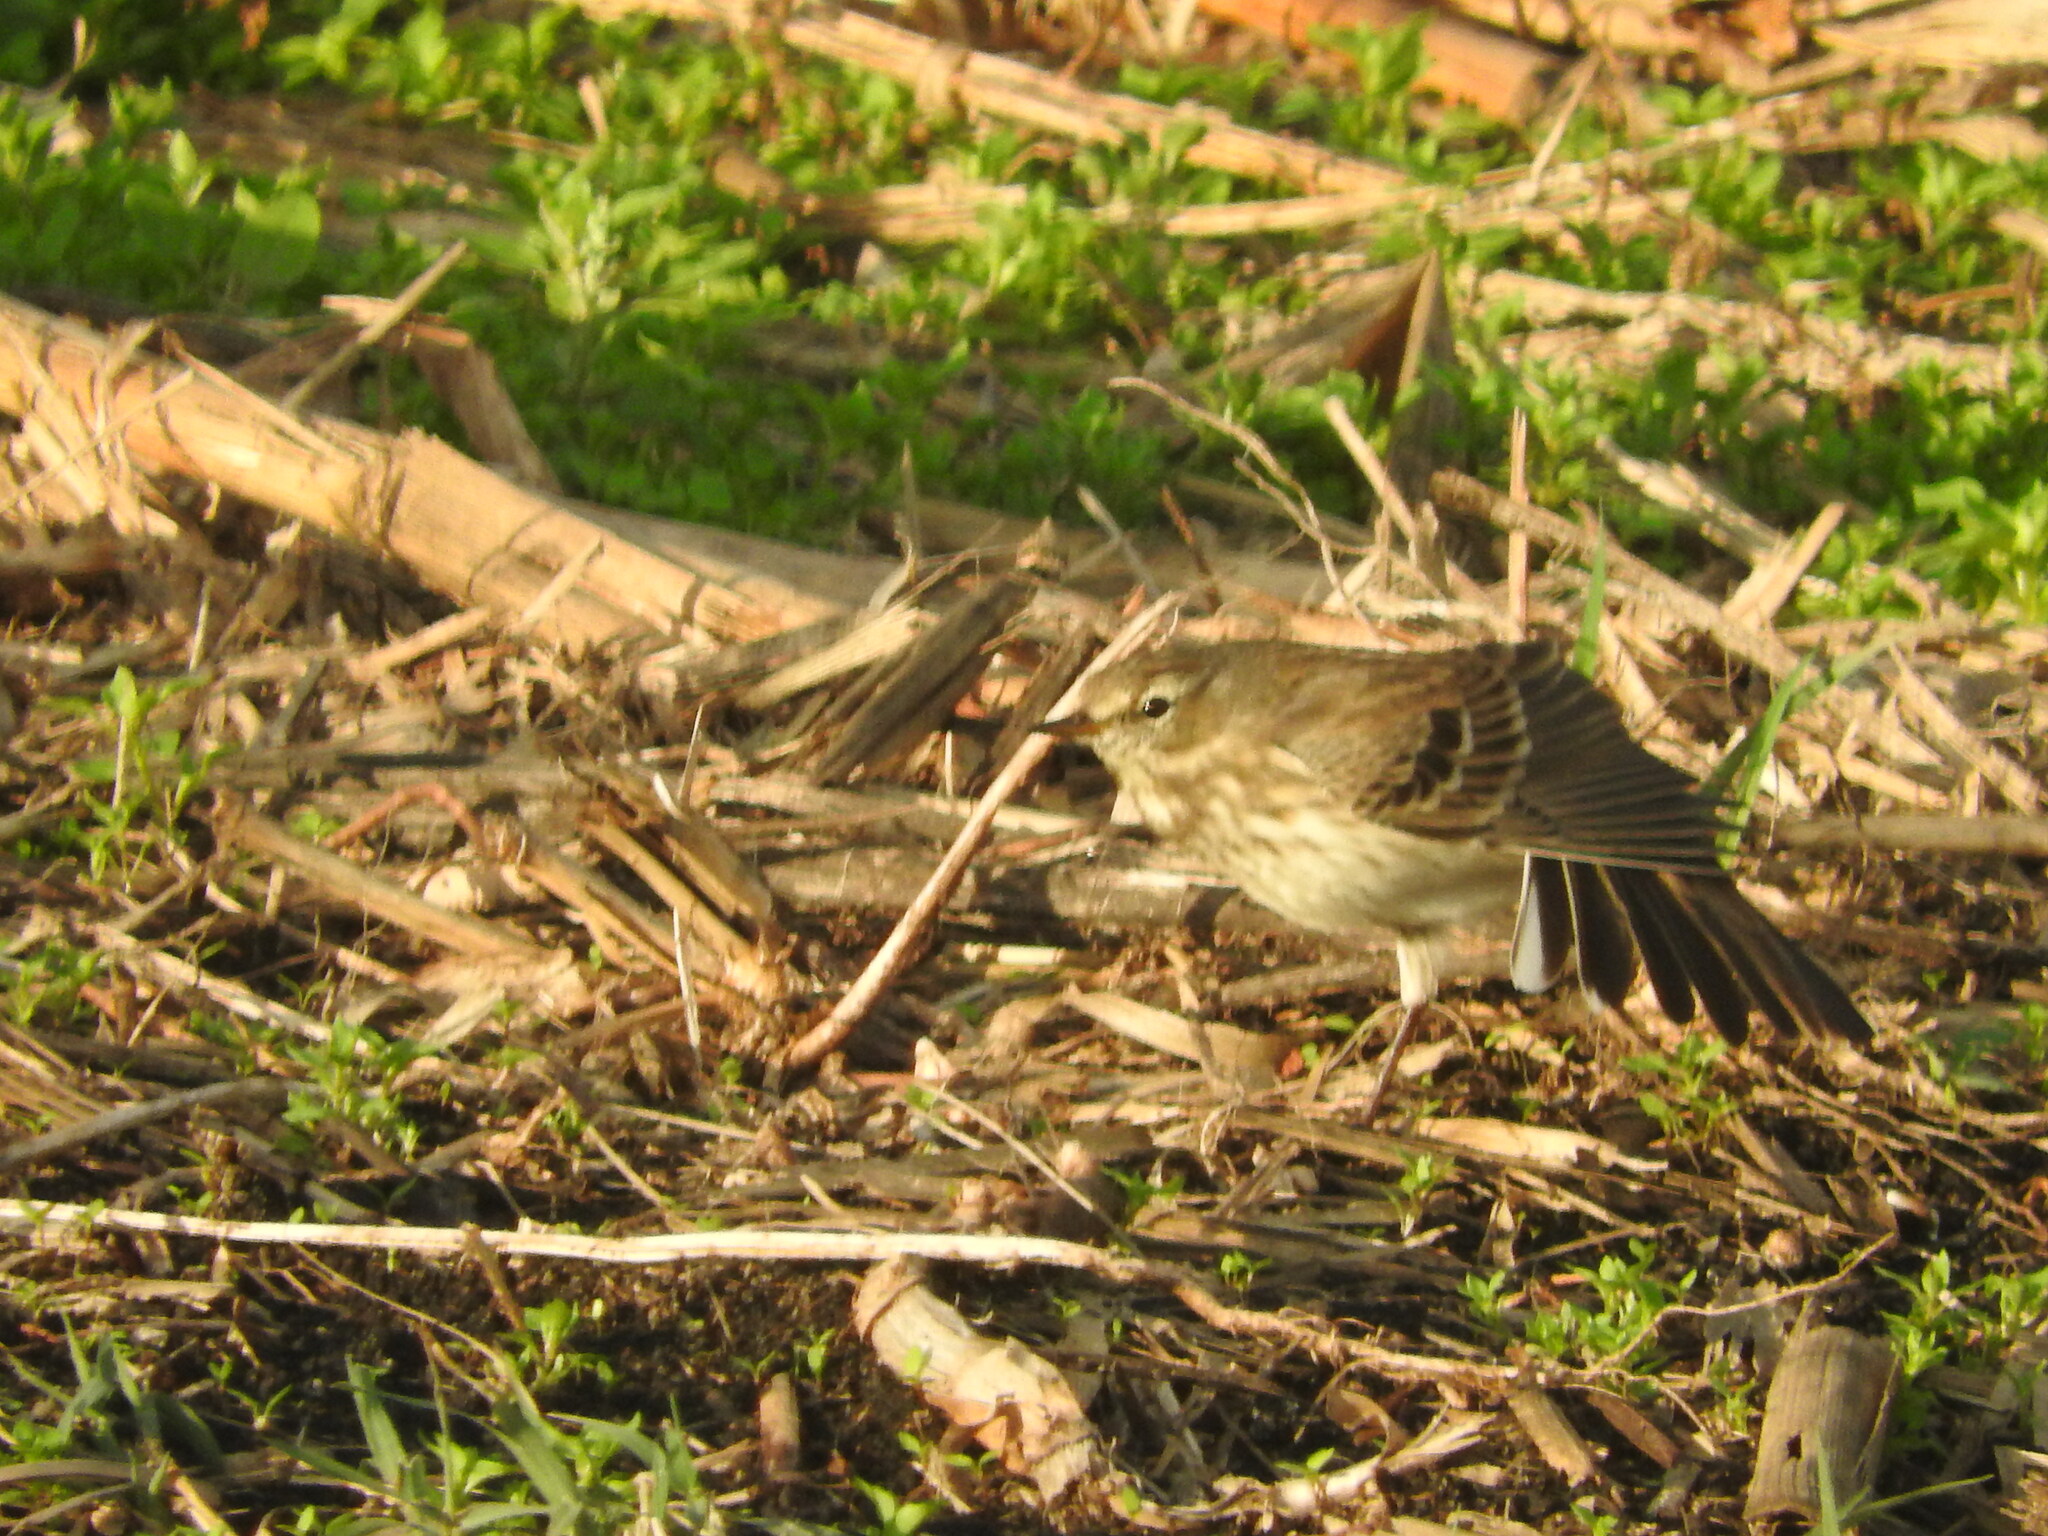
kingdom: Animalia
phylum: Chordata
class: Aves
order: Passeriformes
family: Motacillidae
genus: Anthus
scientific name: Anthus spinoletta
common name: Water pipit
